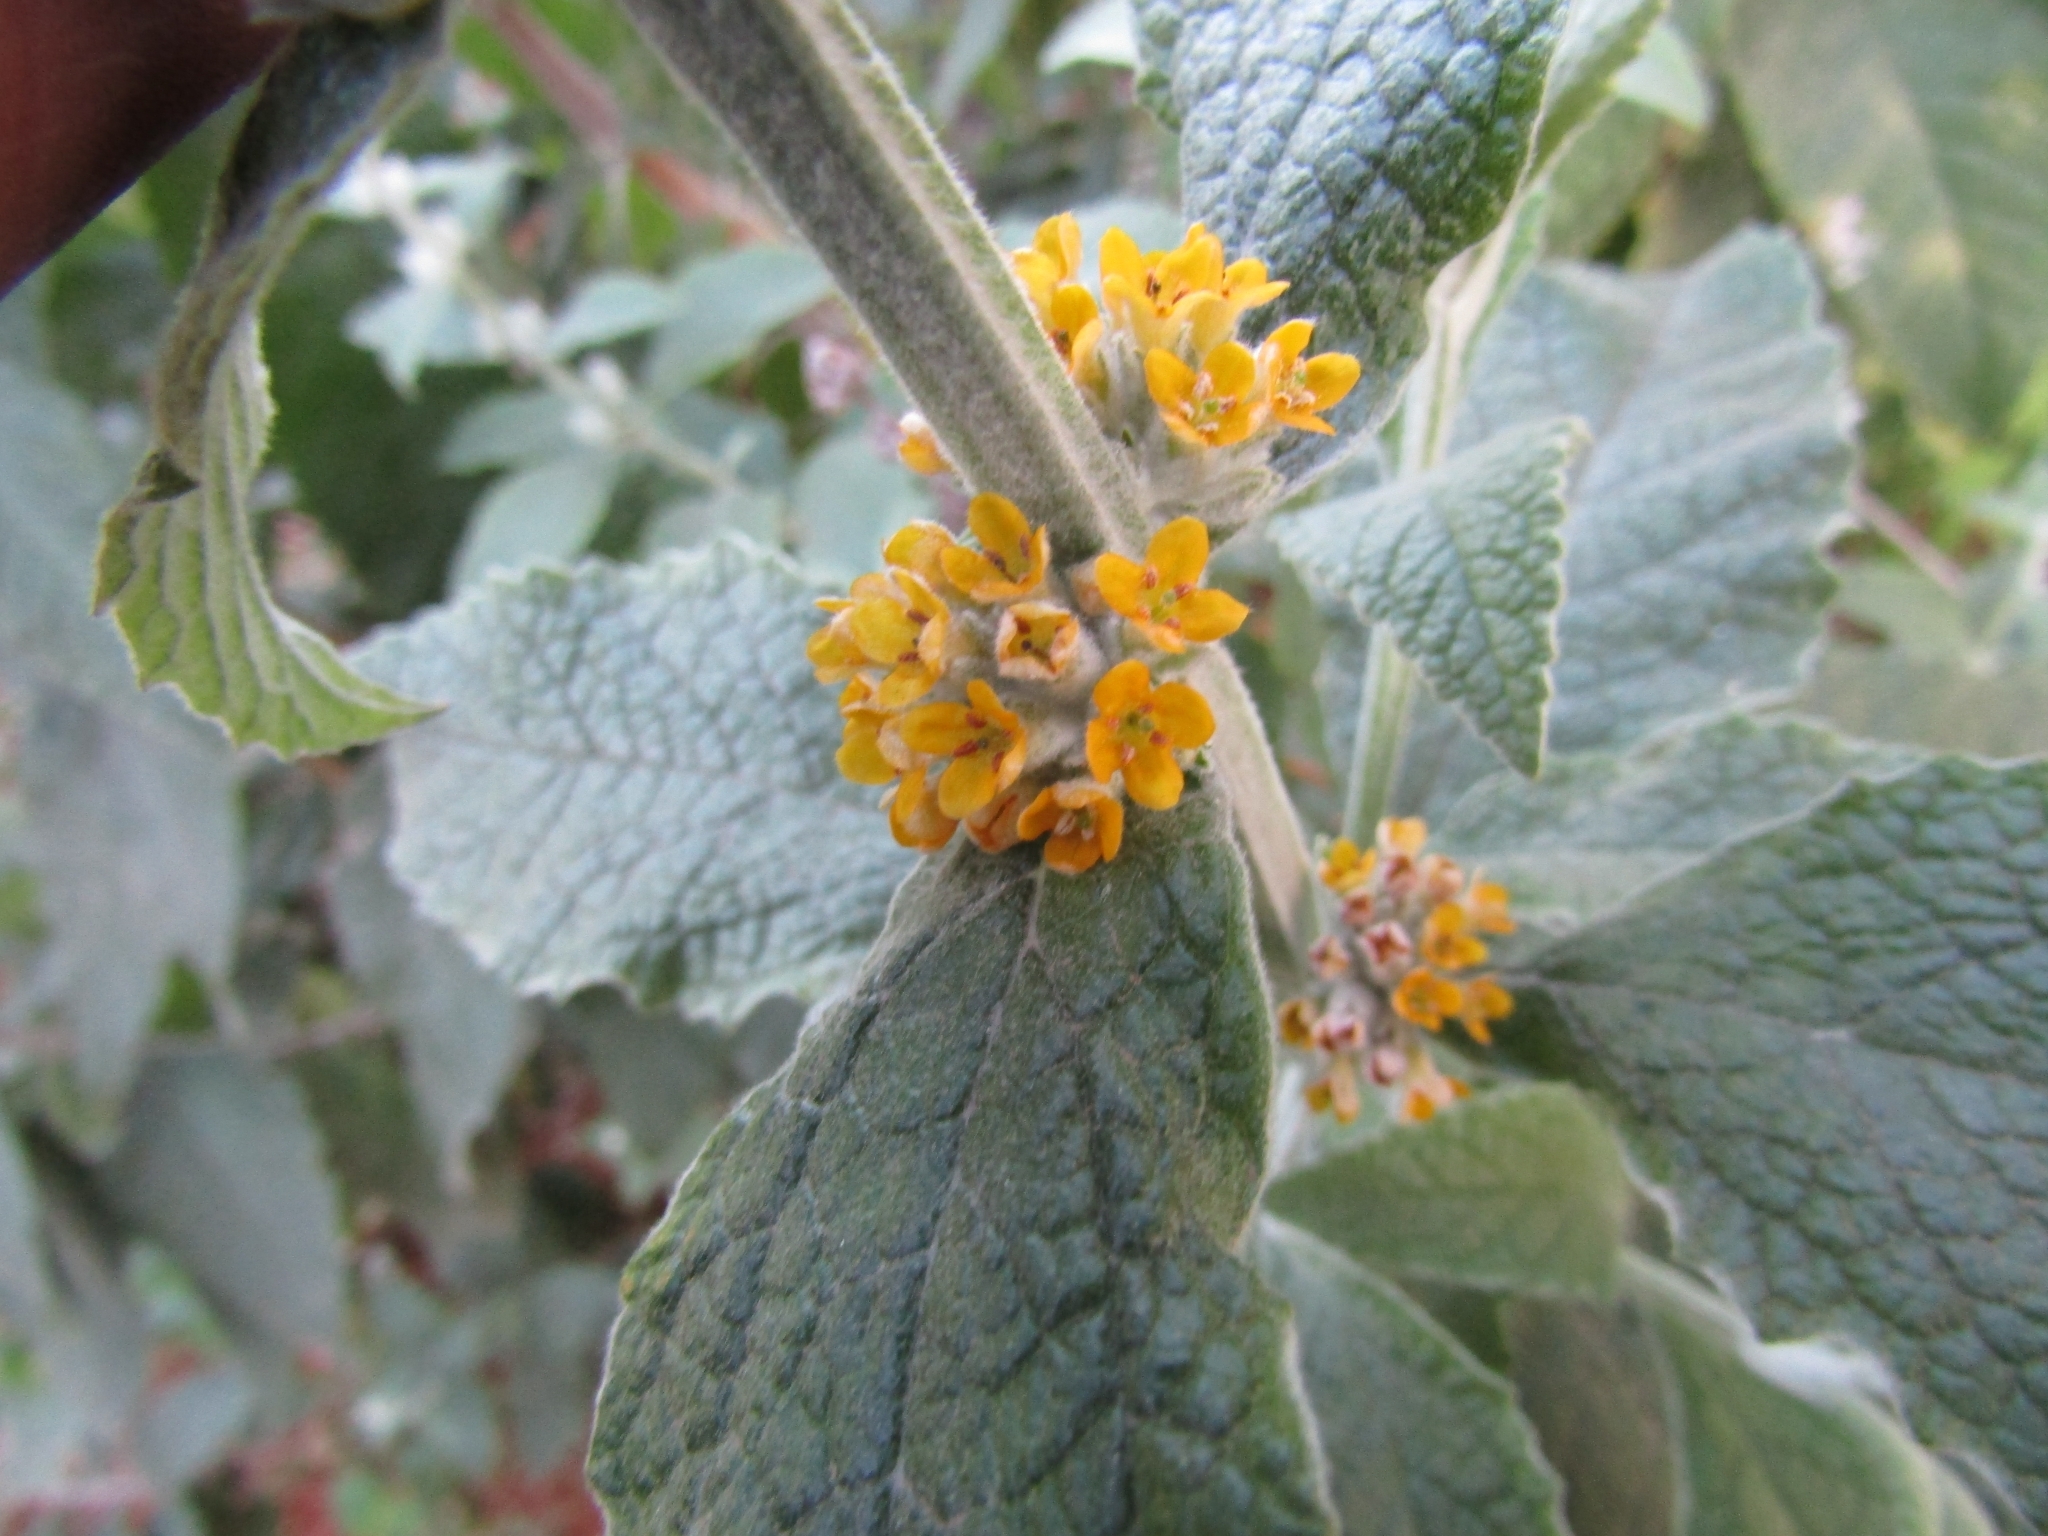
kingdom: Plantae
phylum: Tracheophyta
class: Magnoliopsida
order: Lamiales
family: Scrophulariaceae
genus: Buddleja
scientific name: Buddleja stachyoides
